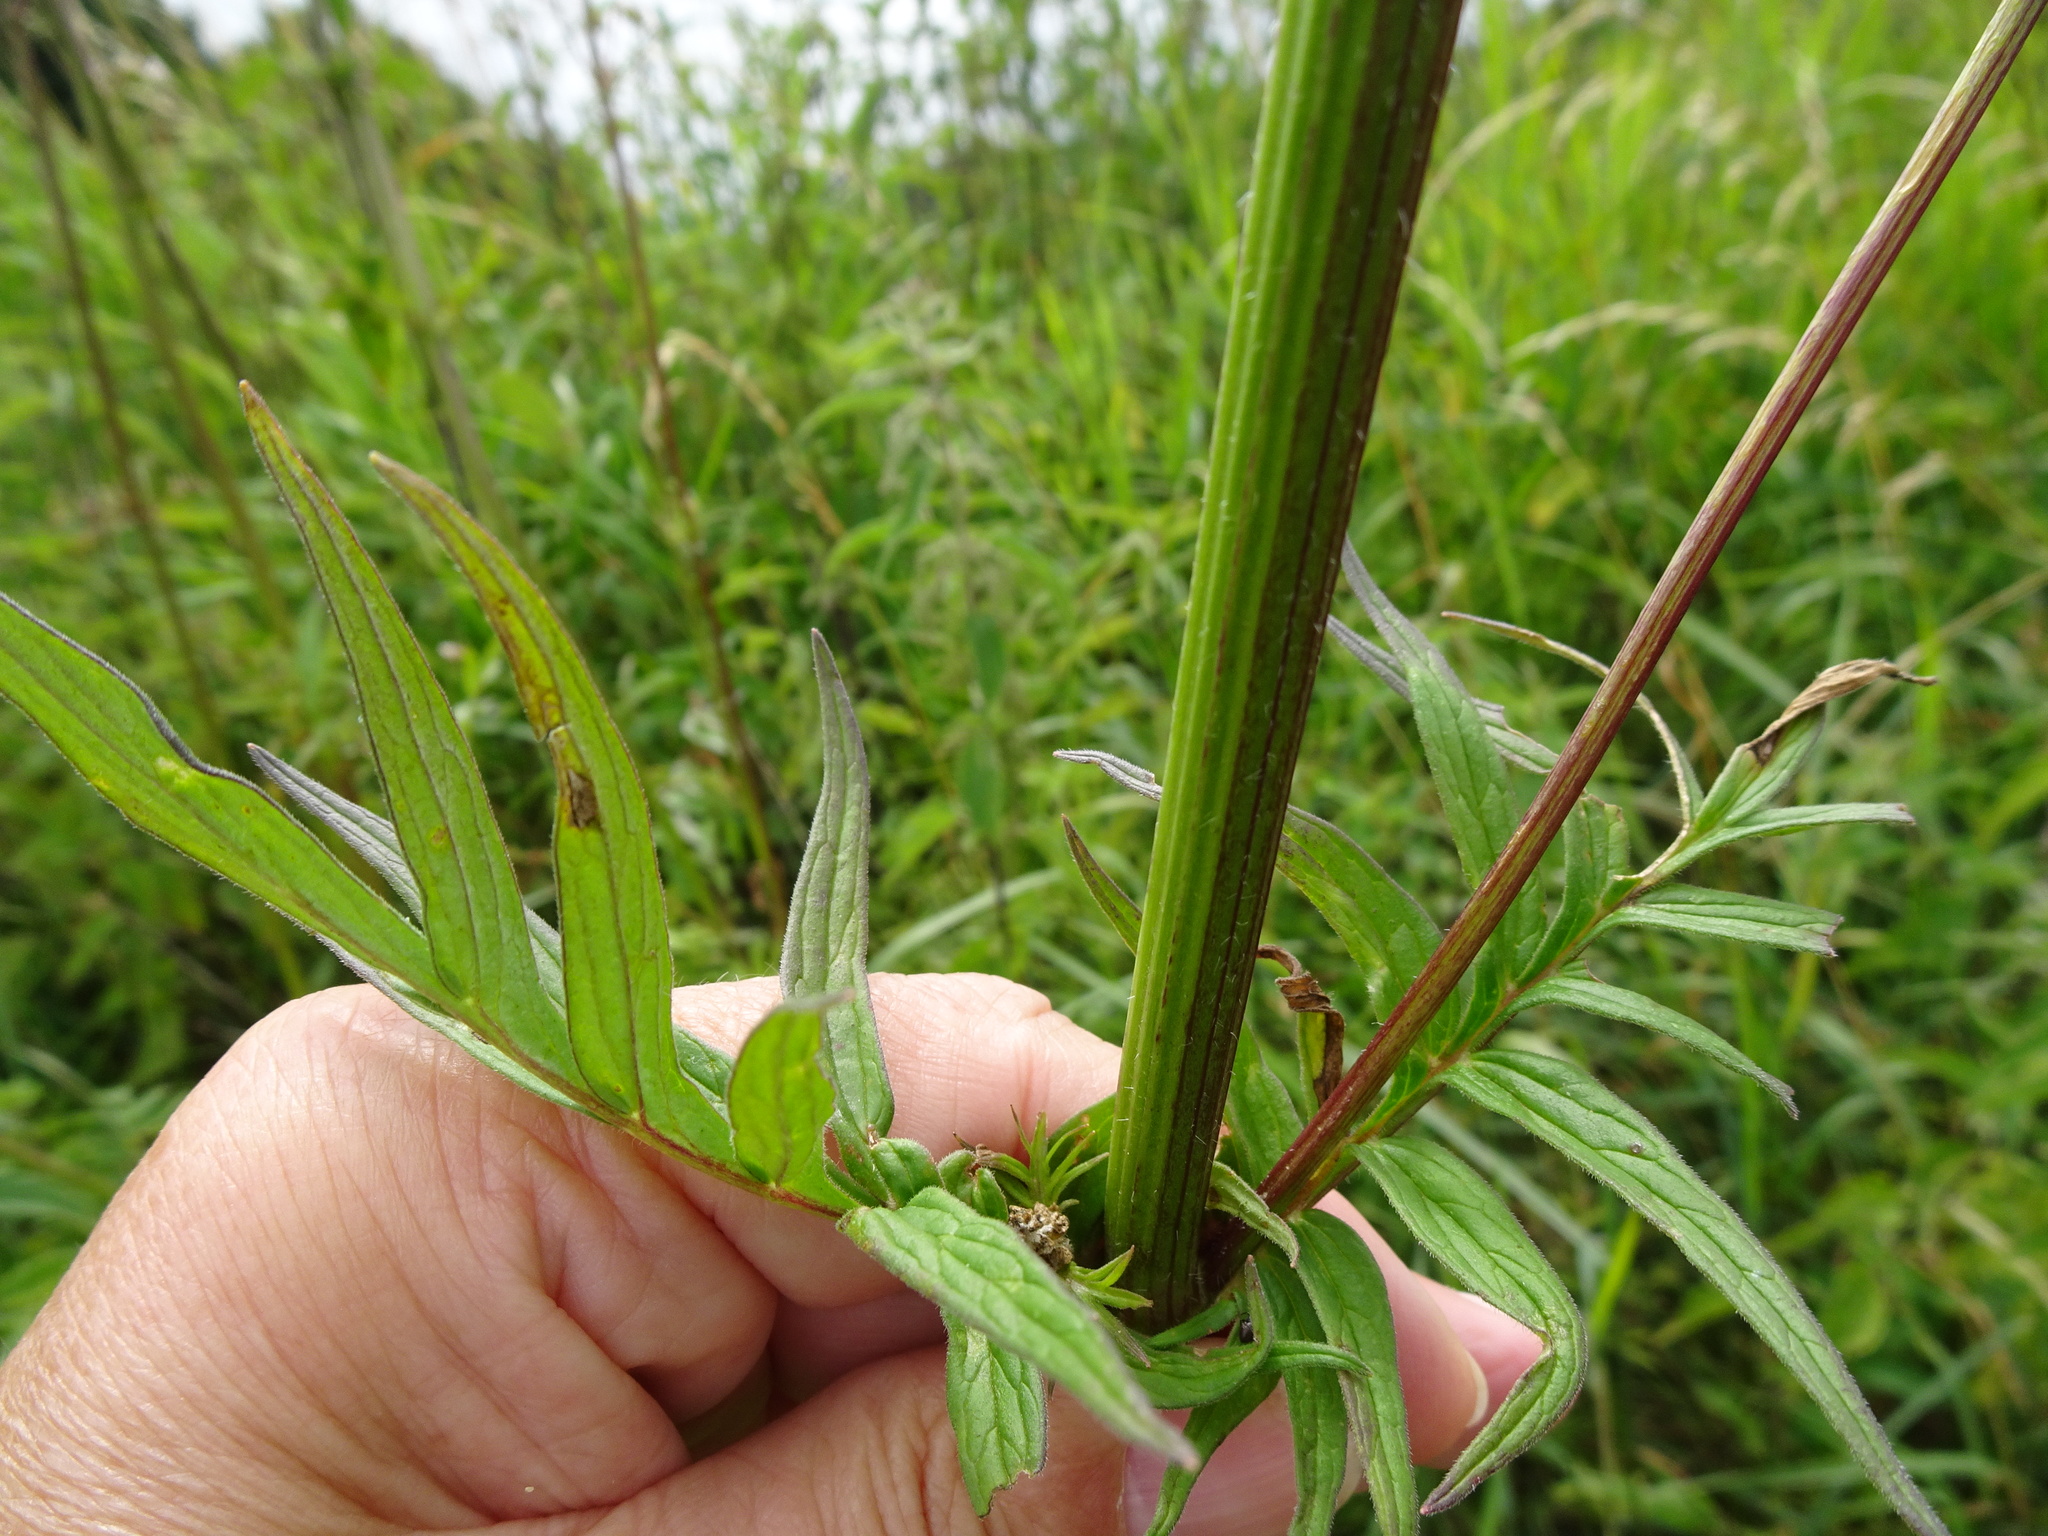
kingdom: Plantae
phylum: Tracheophyta
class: Magnoliopsida
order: Dipsacales
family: Caprifoliaceae
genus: Valeriana
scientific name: Valeriana officinalis
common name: Common valerian
